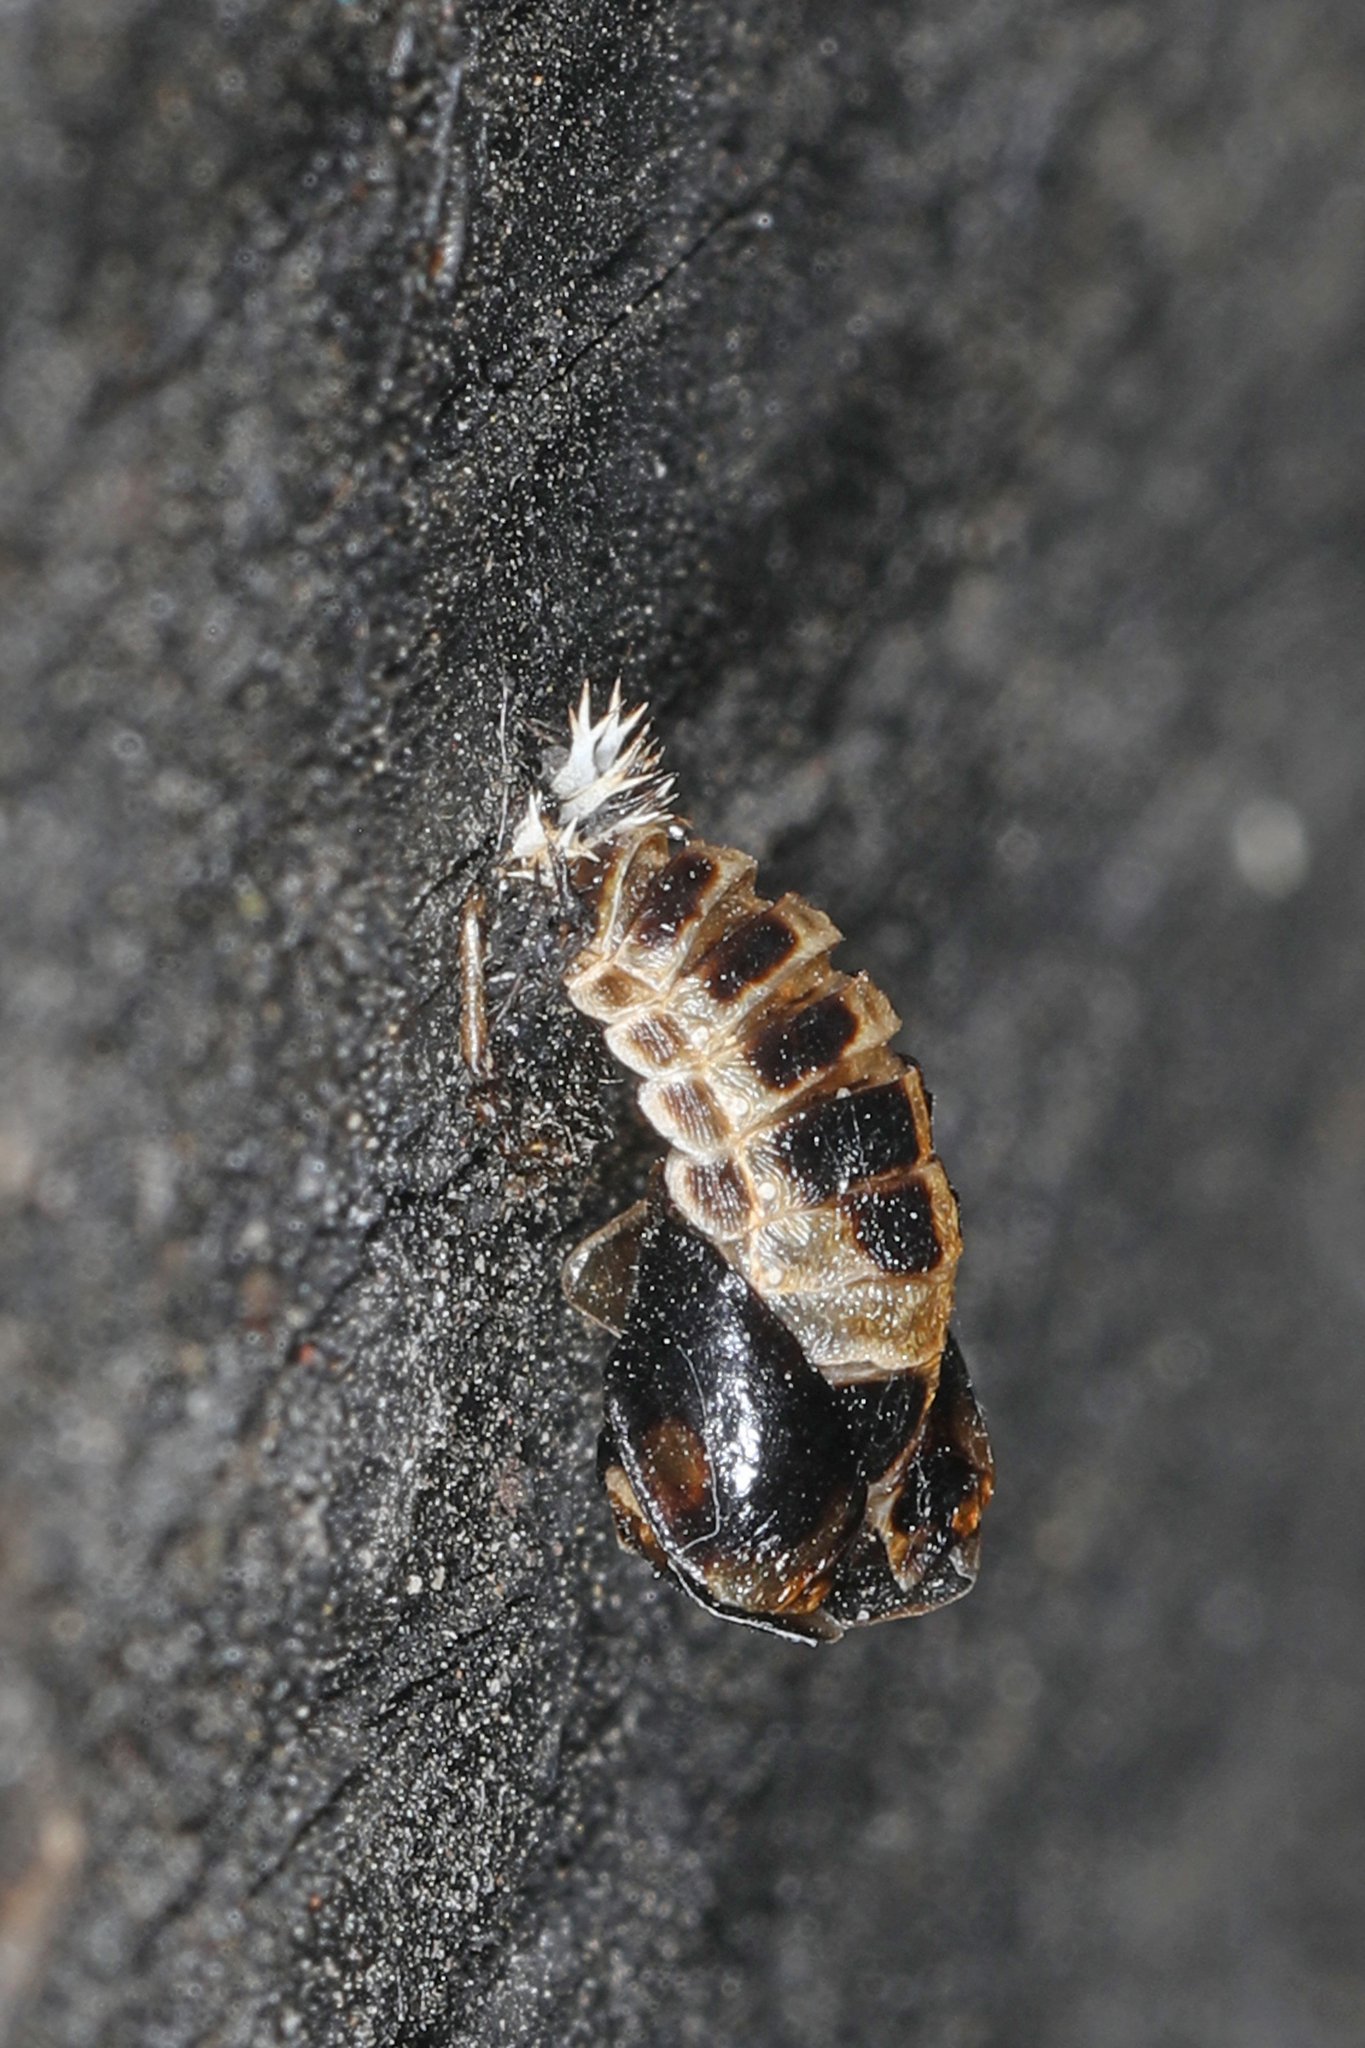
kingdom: Animalia
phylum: Arthropoda
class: Insecta
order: Coleoptera
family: Coccinellidae
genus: Harmonia
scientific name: Harmonia axyridis
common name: Harlequin ladybird
